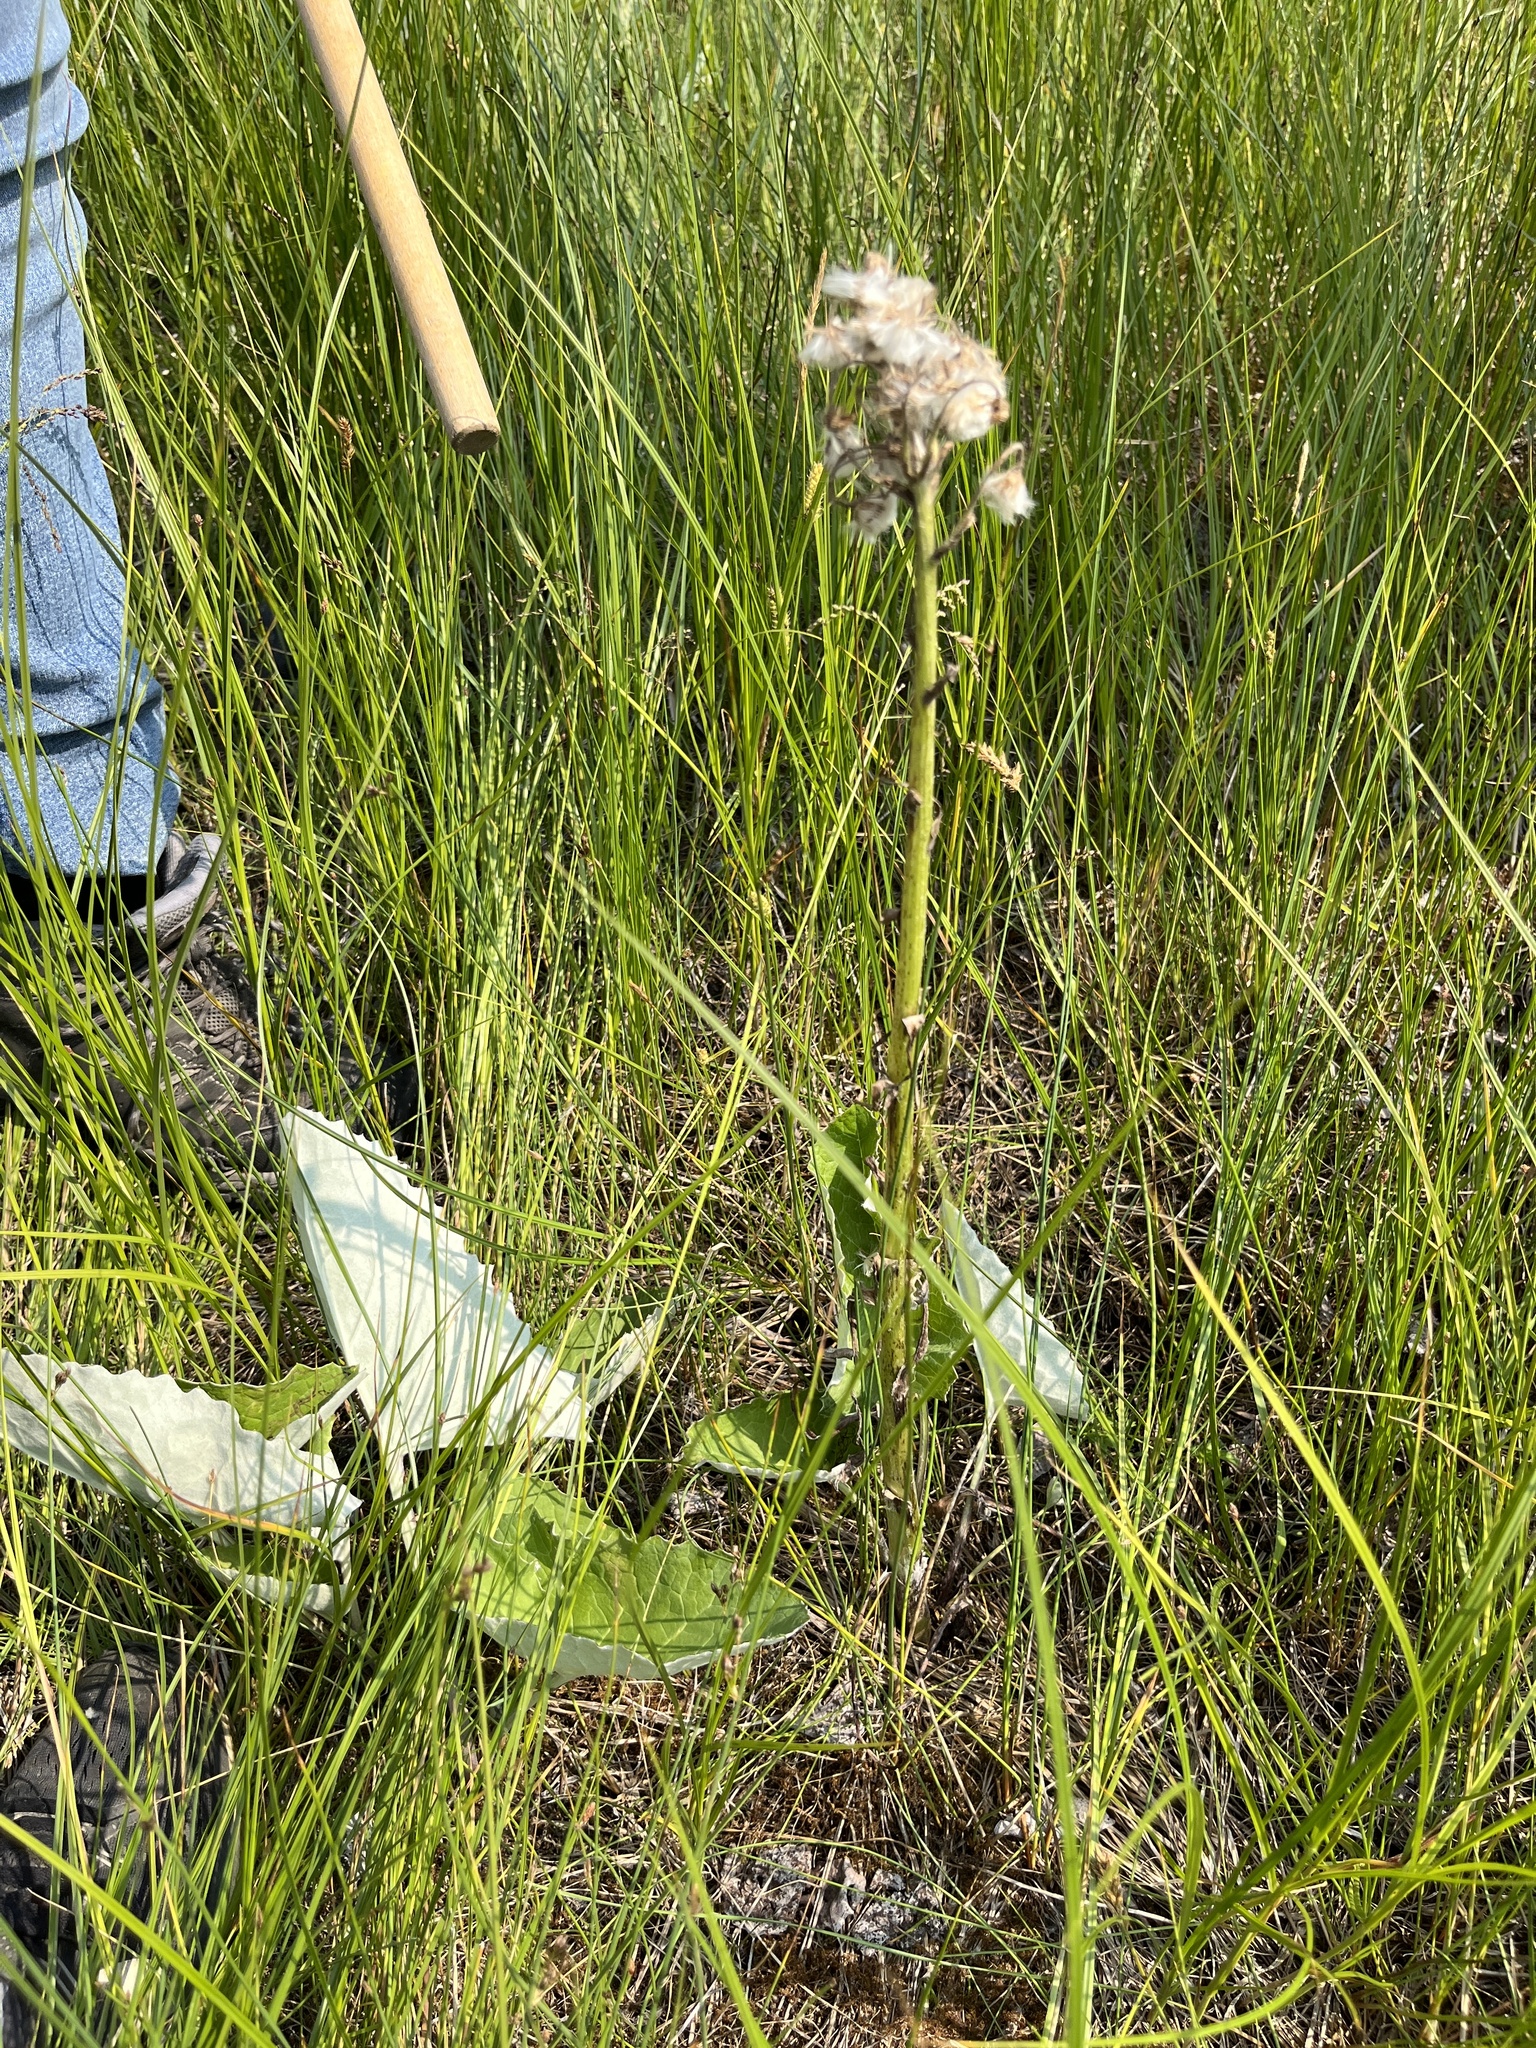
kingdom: Plantae
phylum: Tracheophyta
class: Magnoliopsida
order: Asterales
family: Asteraceae
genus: Petasites
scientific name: Petasites frigidus
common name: Arctic butterbur
